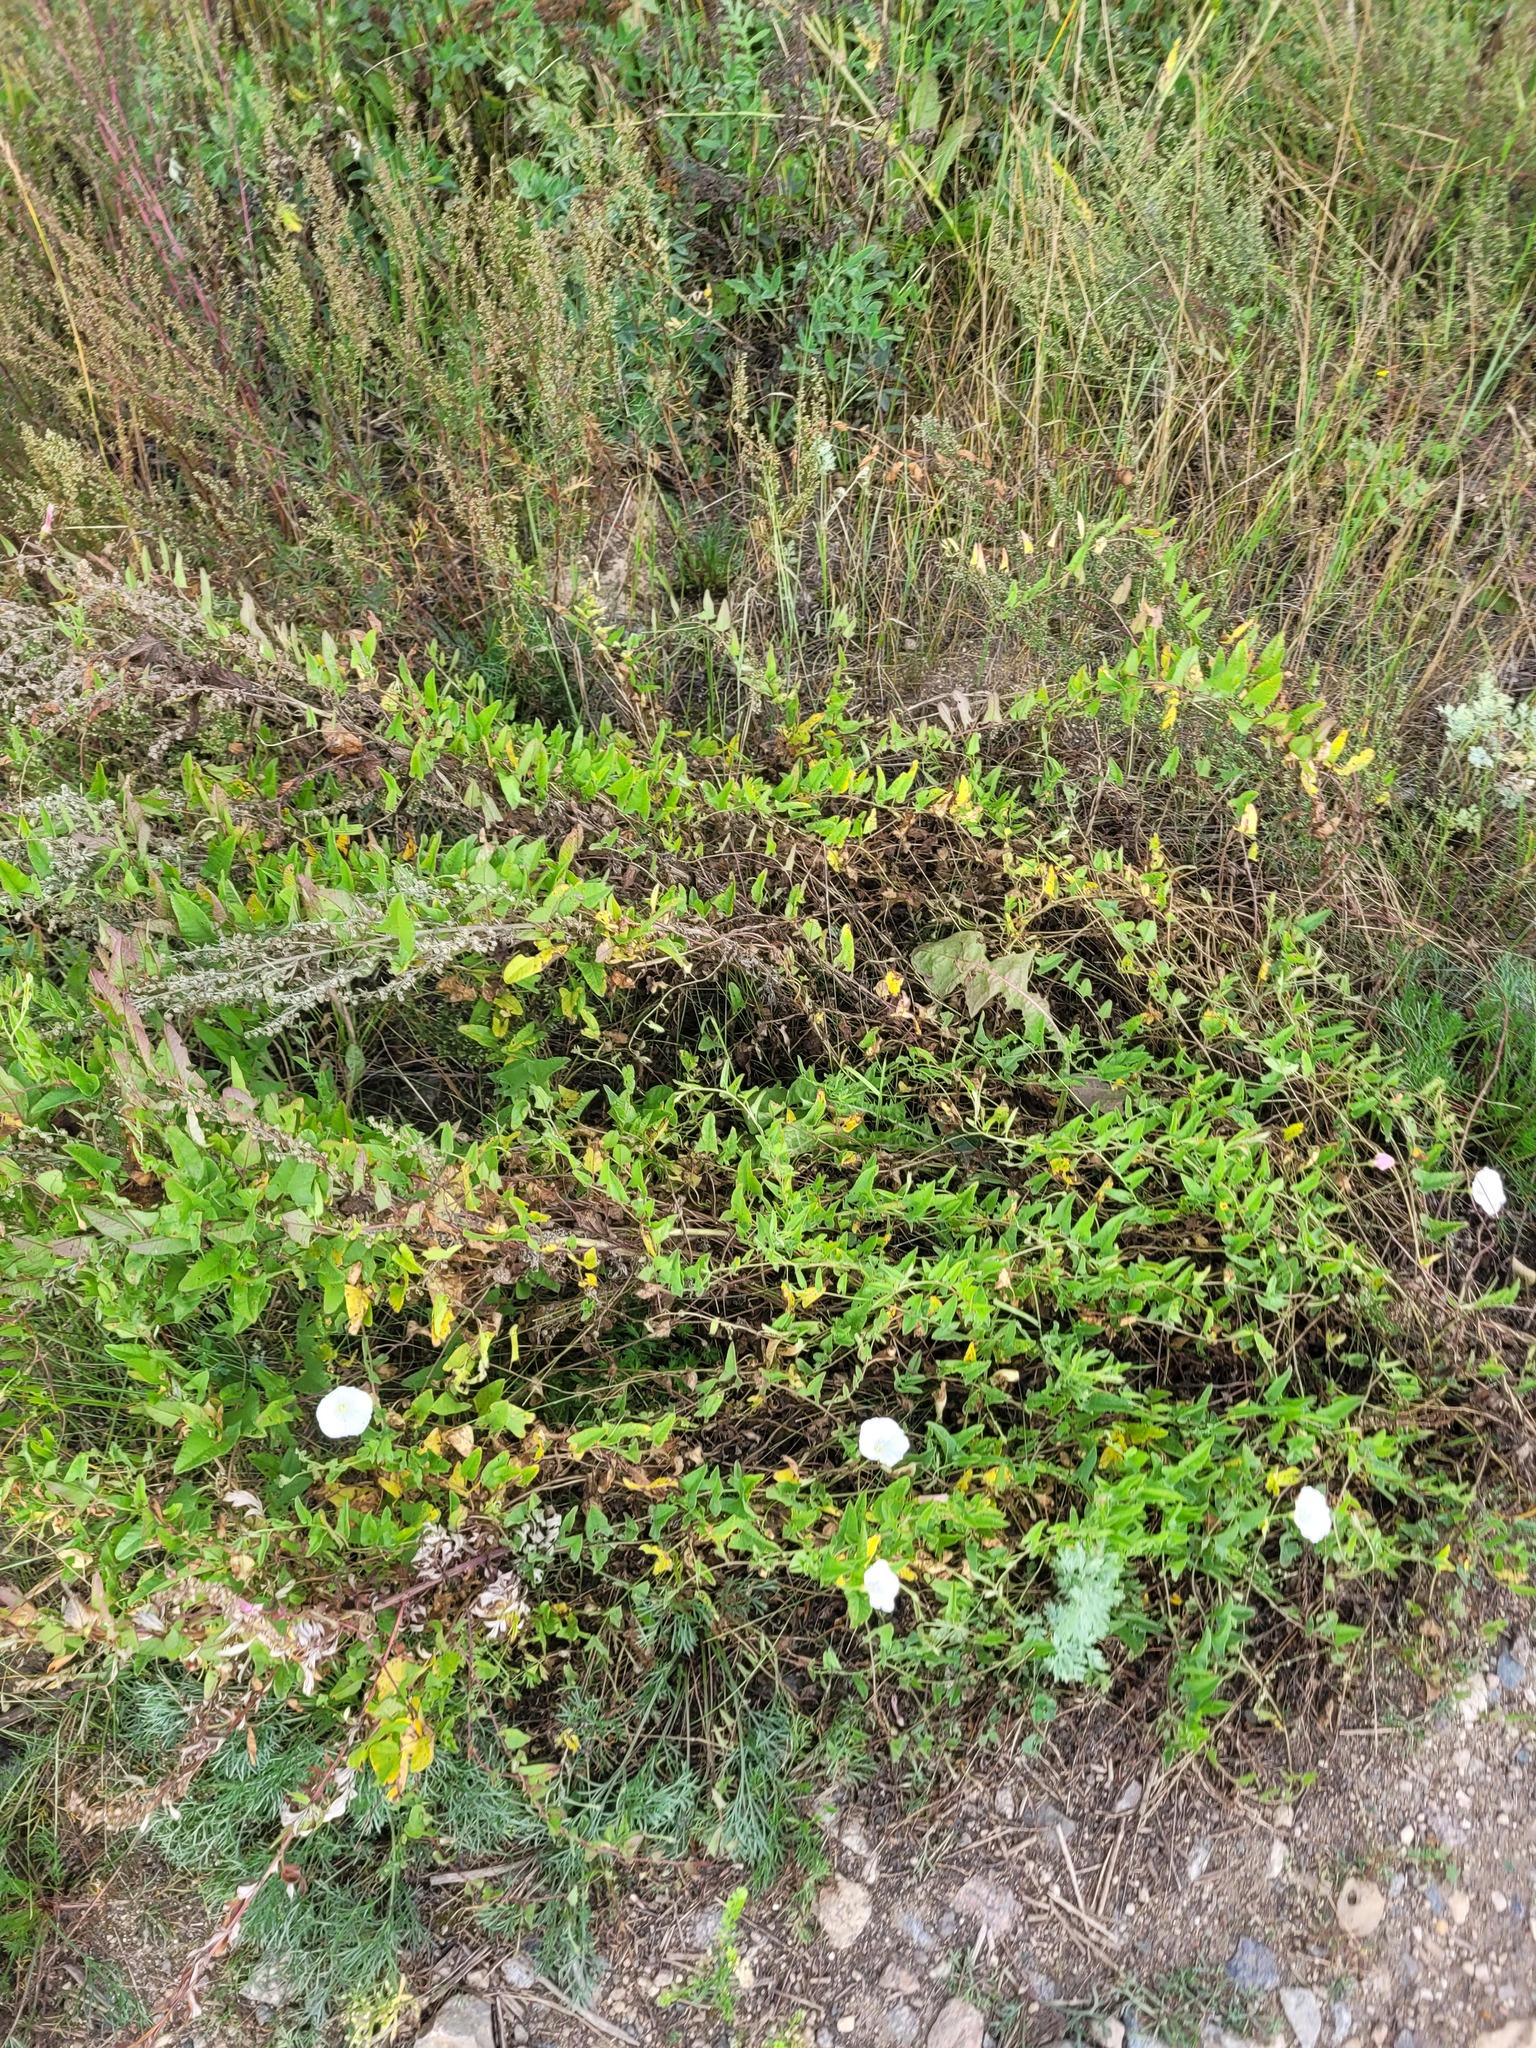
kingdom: Plantae
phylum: Tracheophyta
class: Magnoliopsida
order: Solanales
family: Convolvulaceae
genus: Convolvulus
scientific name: Convolvulus arvensis
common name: Field bindweed
